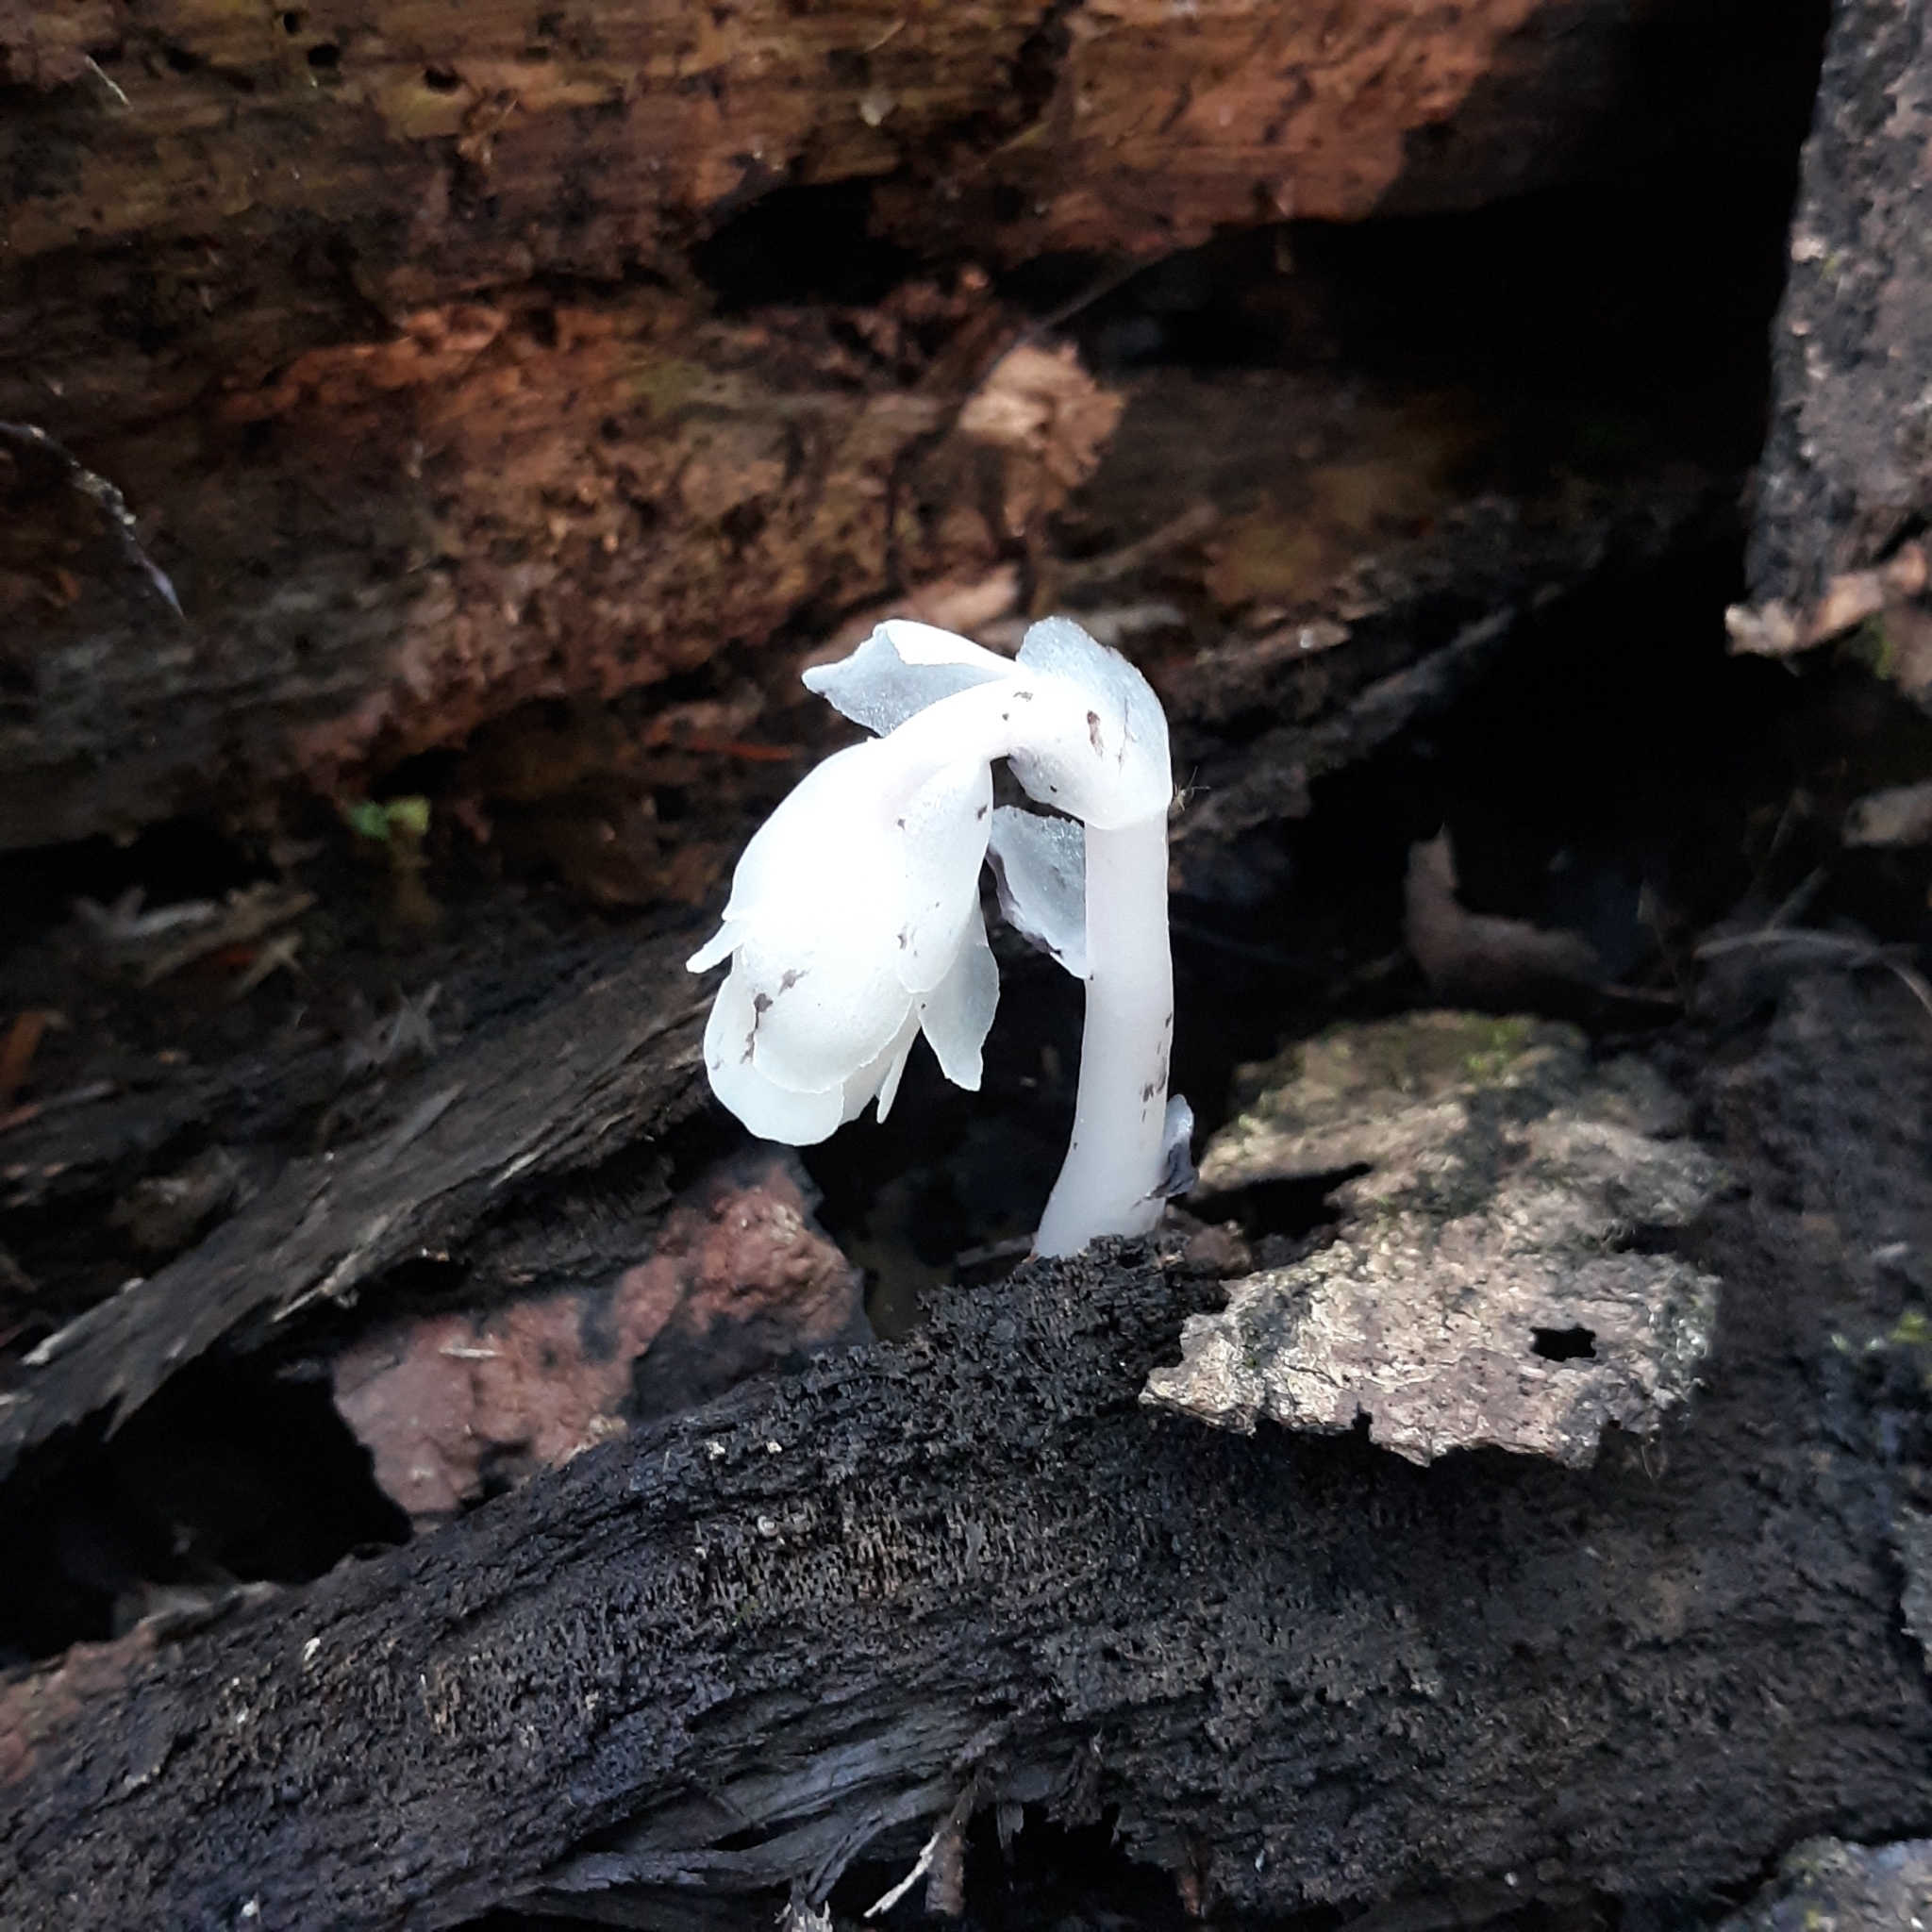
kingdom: Plantae
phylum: Tracheophyta
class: Magnoliopsida
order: Ericales
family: Ericaceae
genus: Monotropa
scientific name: Monotropa uniflora
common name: Convulsion root
